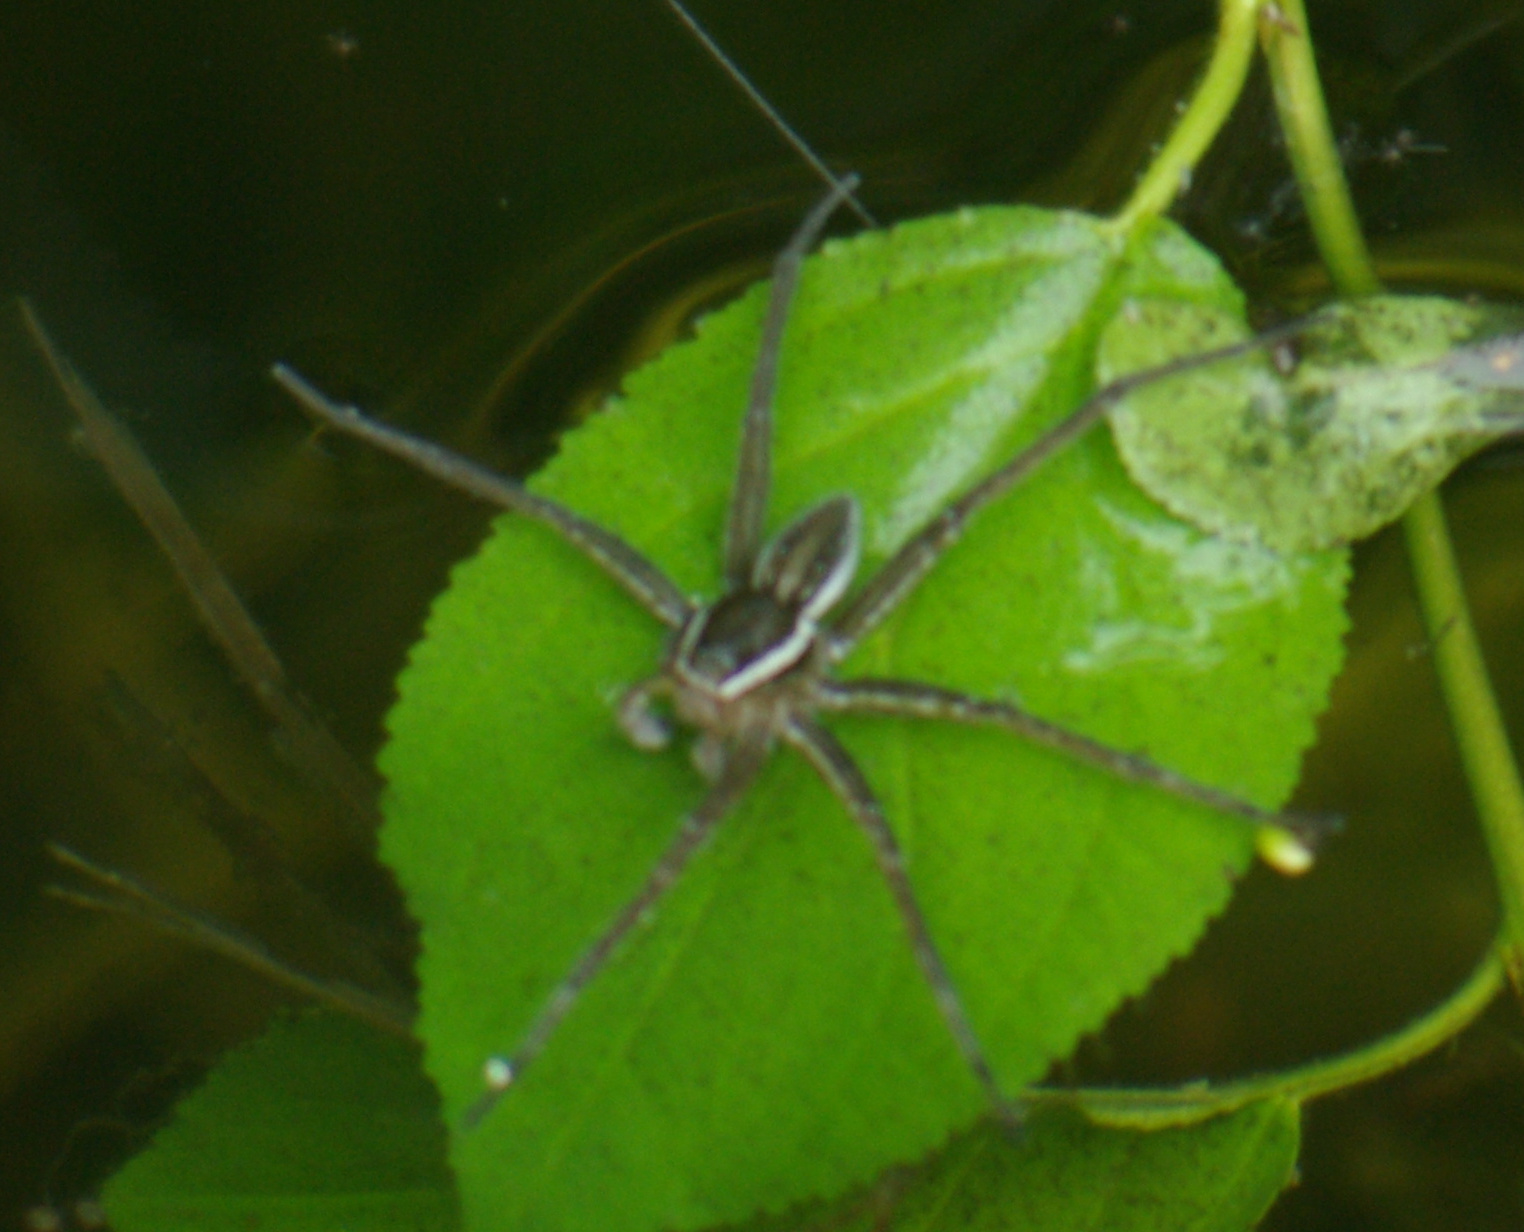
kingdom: Animalia
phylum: Arthropoda
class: Arachnida
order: Araneae
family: Pisauridae
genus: Dolomedes
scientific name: Dolomedes triton
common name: Six-spotted fishing spider
